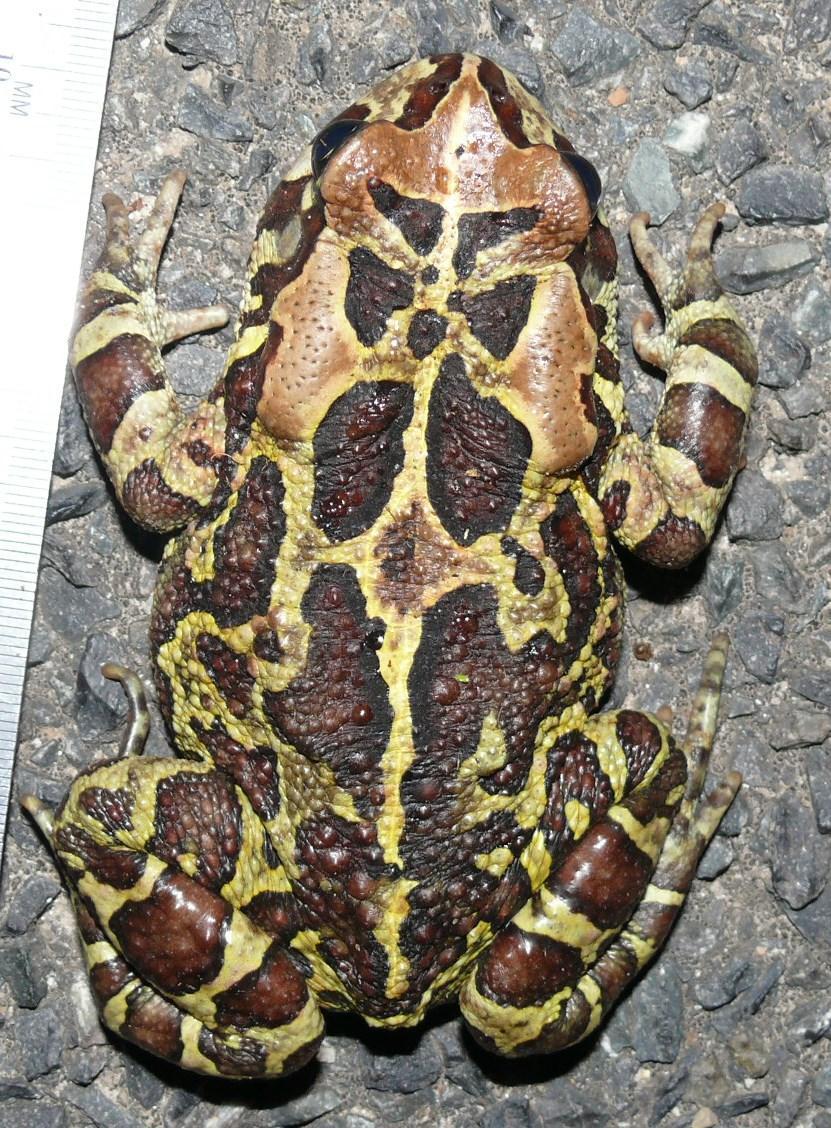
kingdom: Animalia
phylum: Chordata
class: Amphibia
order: Anura
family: Bufonidae
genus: Sclerophrys
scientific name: Sclerophrys pantherina
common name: Panther toad
